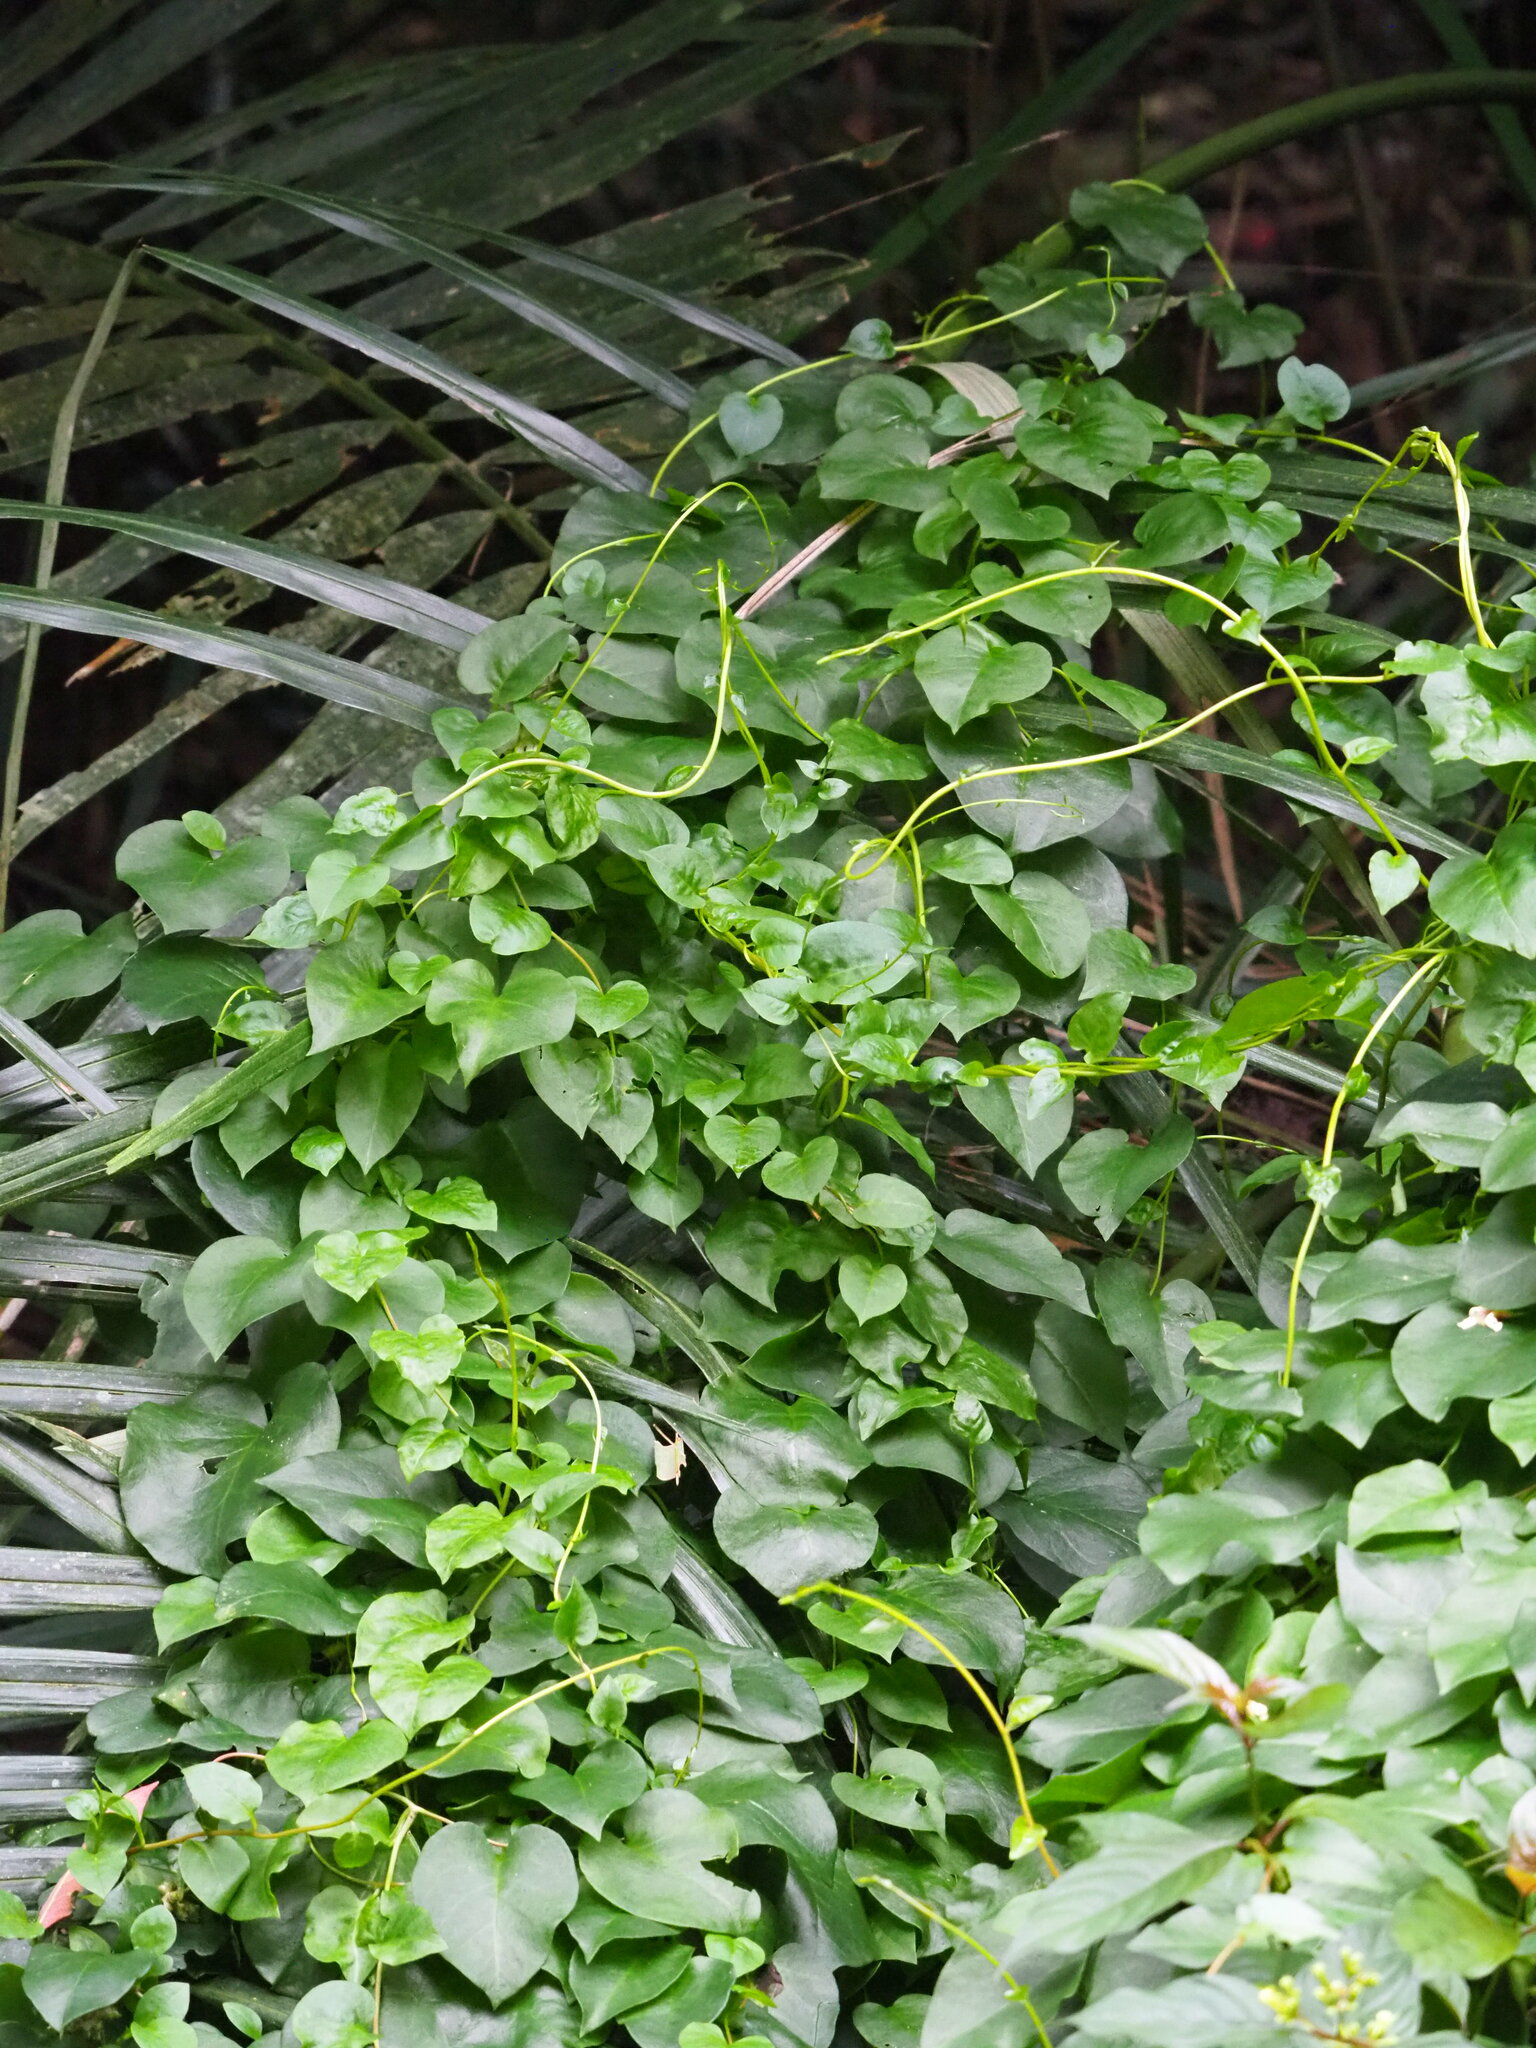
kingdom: Plantae
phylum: Tracheophyta
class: Magnoliopsida
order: Caryophyllales
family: Basellaceae
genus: Anredera
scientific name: Anredera cordifolia
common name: Heartleaf madeiravine
